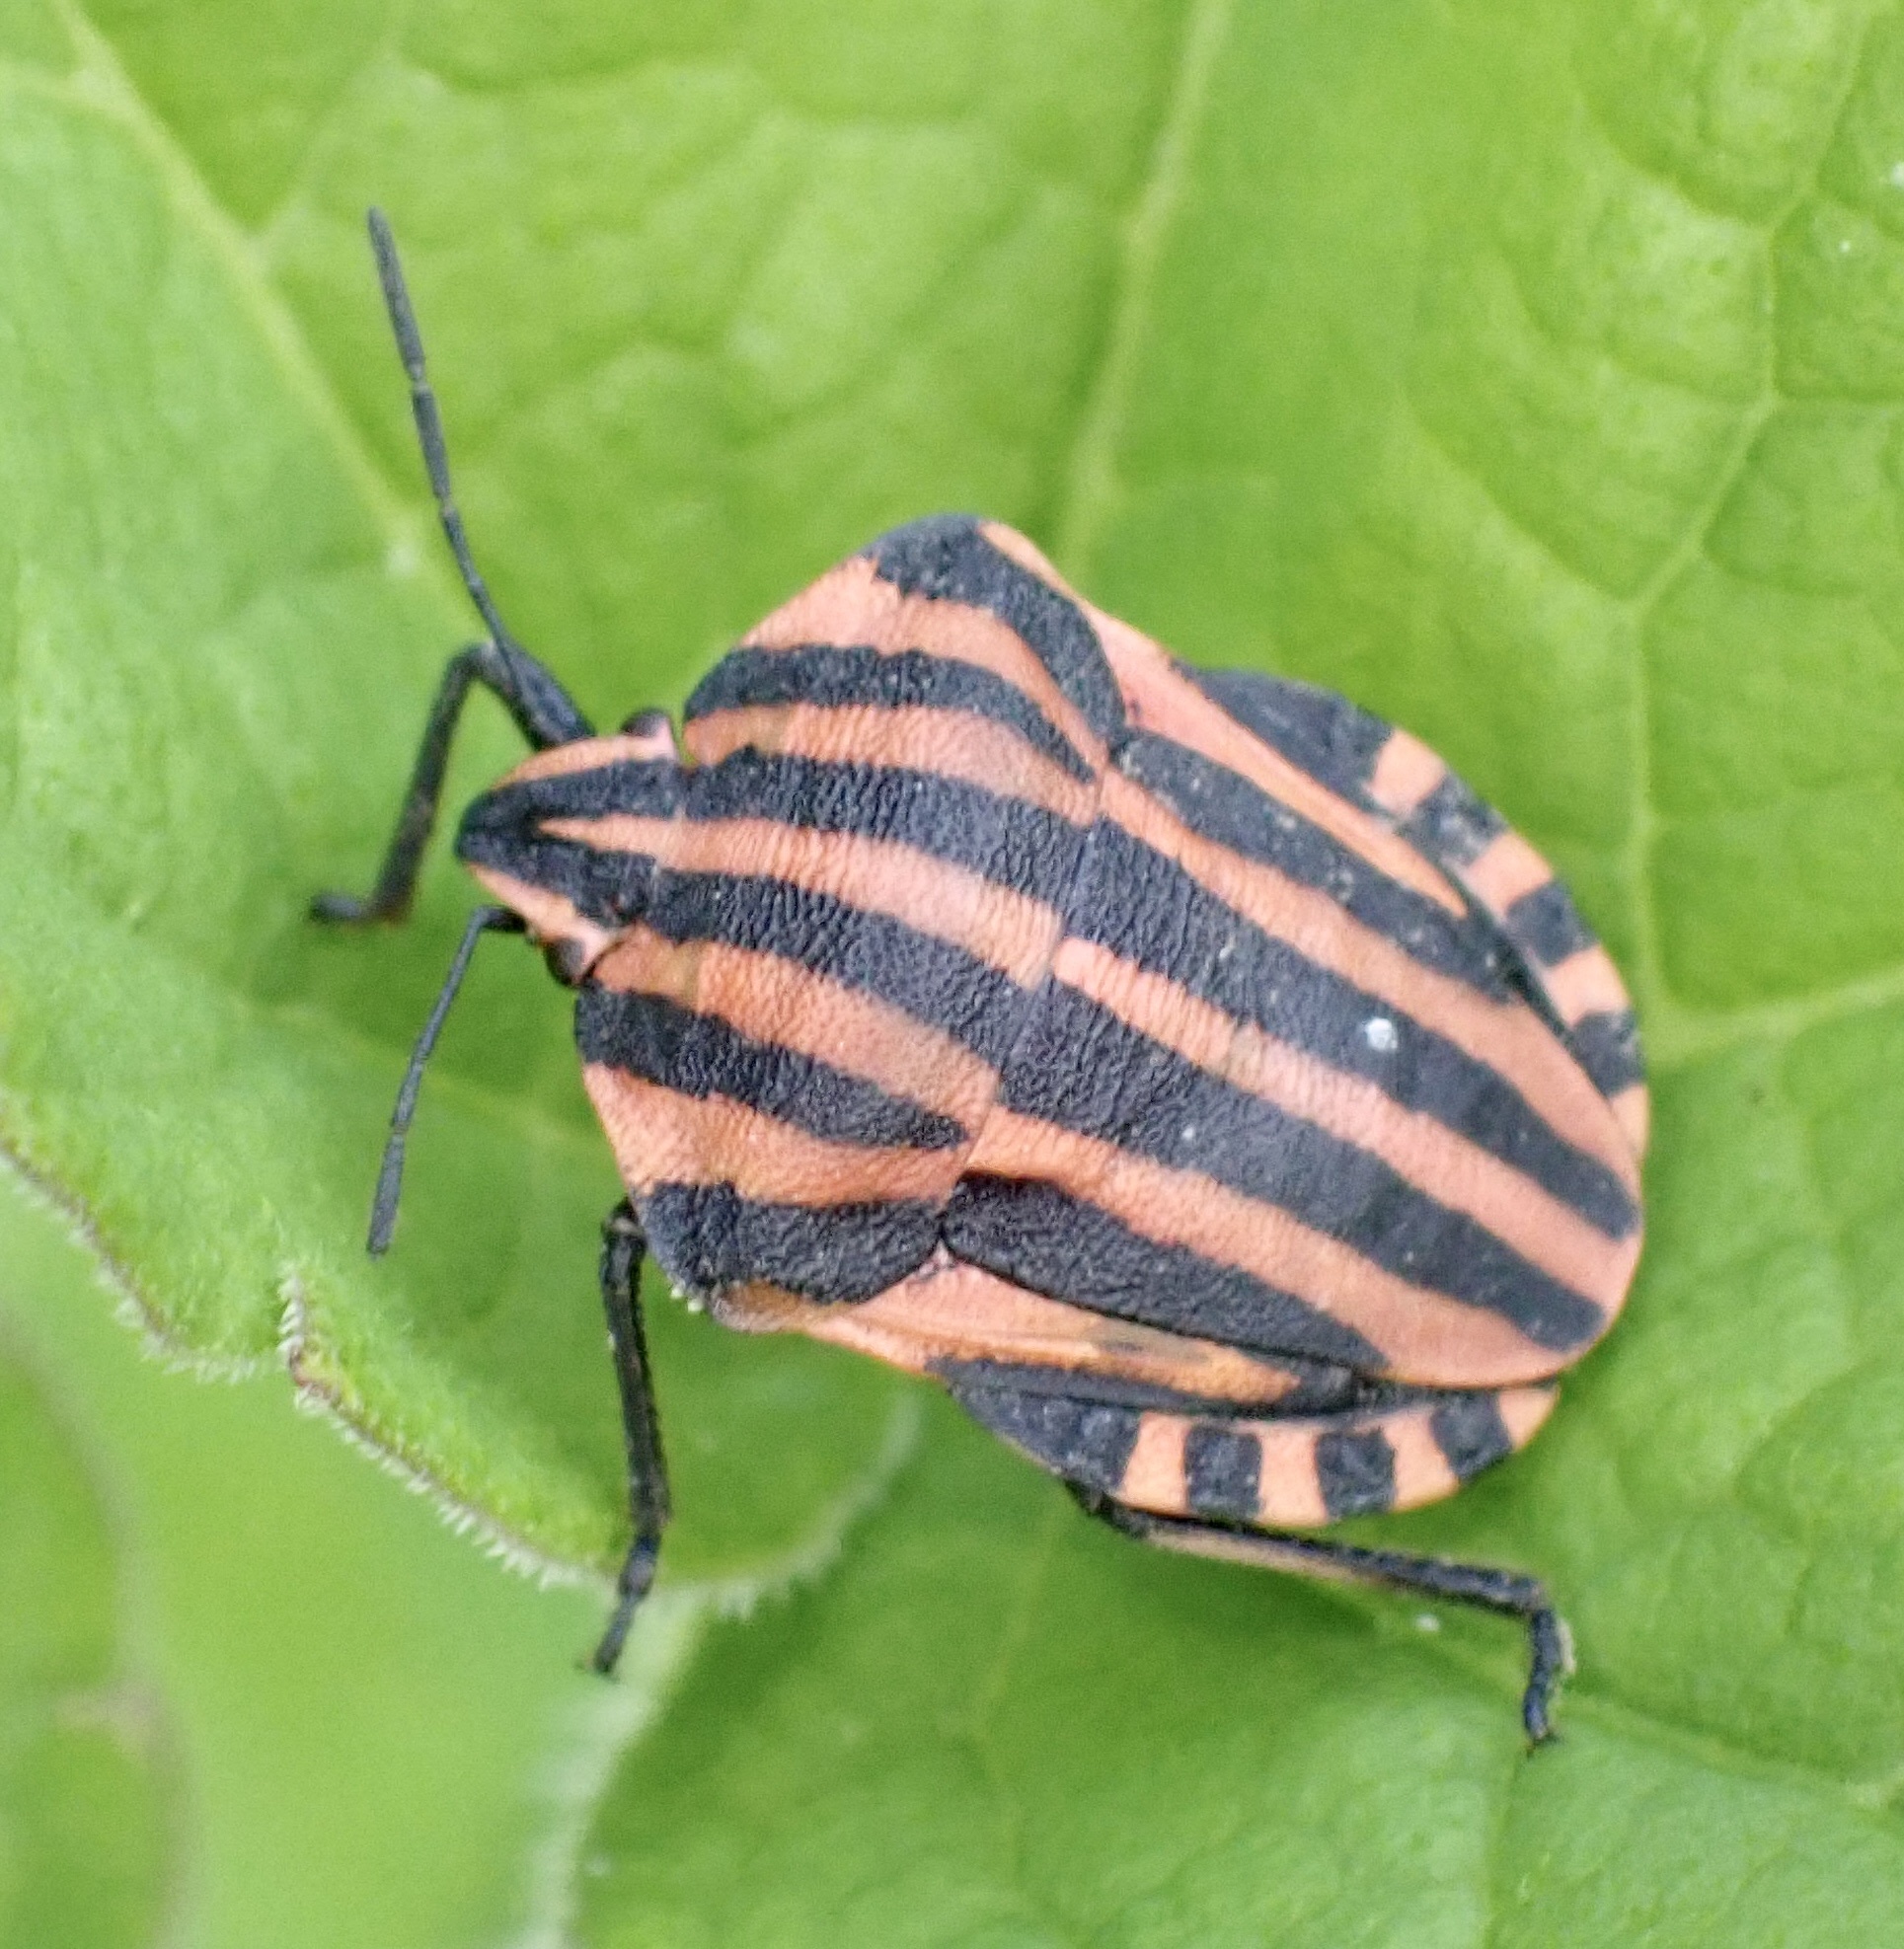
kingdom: Animalia
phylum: Arthropoda
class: Insecta
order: Hemiptera
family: Pentatomidae
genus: Graphosoma
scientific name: Graphosoma italicum
